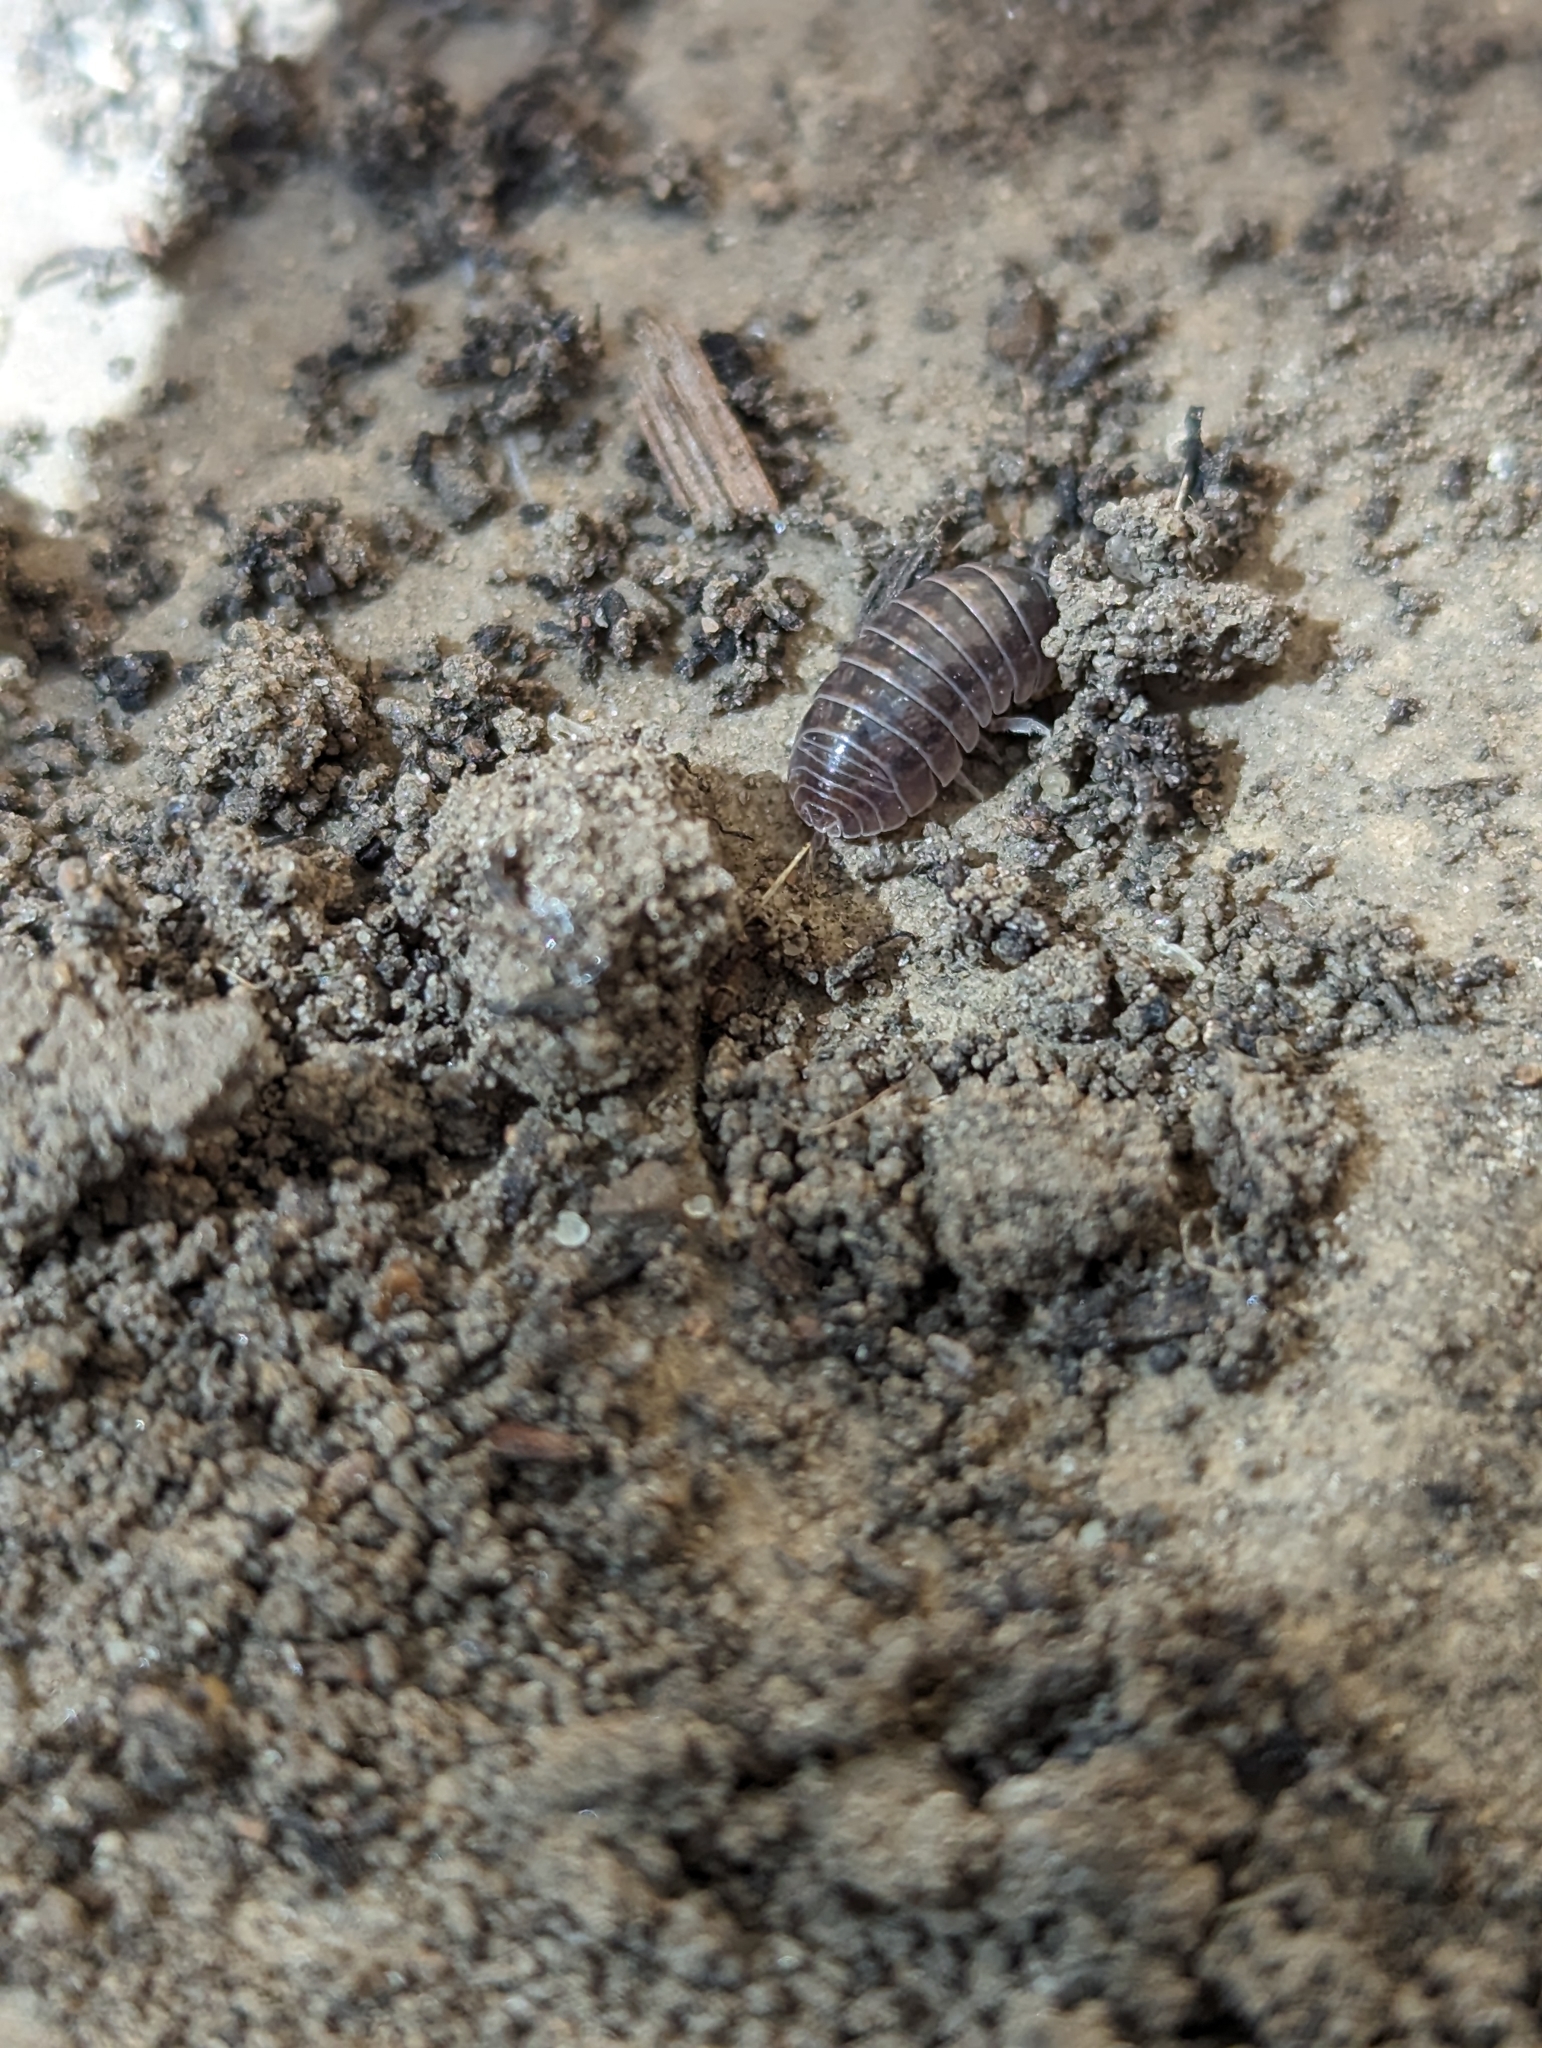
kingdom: Animalia
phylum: Arthropoda
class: Malacostraca
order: Isopoda
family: Armadillidiidae
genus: Armadillidium
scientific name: Armadillidium vulgare
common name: Common pill woodlouse
